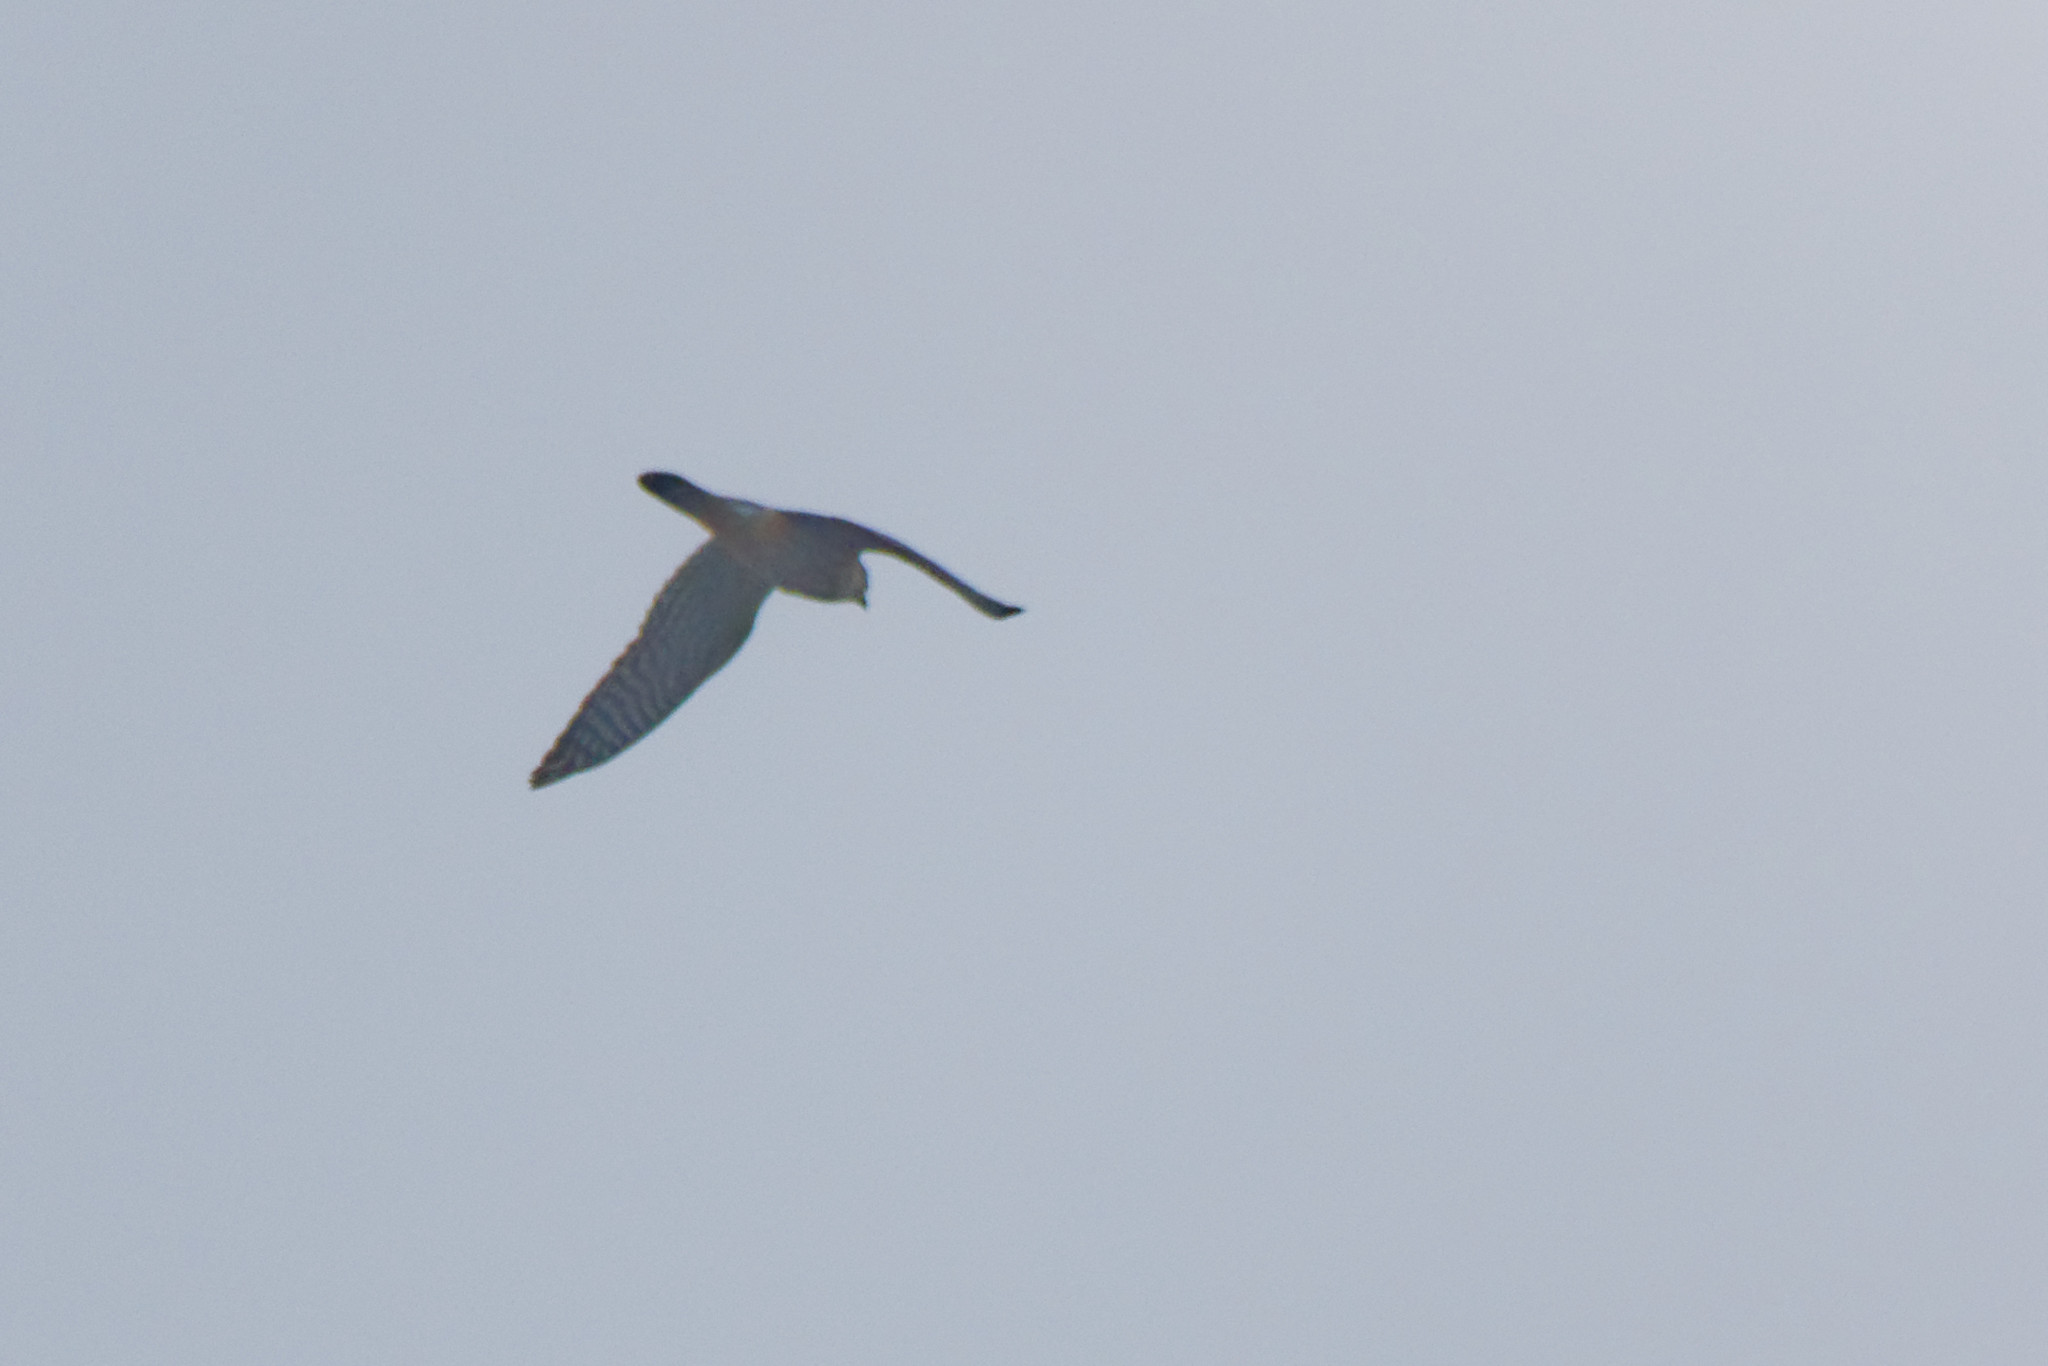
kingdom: Animalia
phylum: Chordata
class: Aves
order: Falconiformes
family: Falconidae
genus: Falco
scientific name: Falco sparverius
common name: American kestrel
